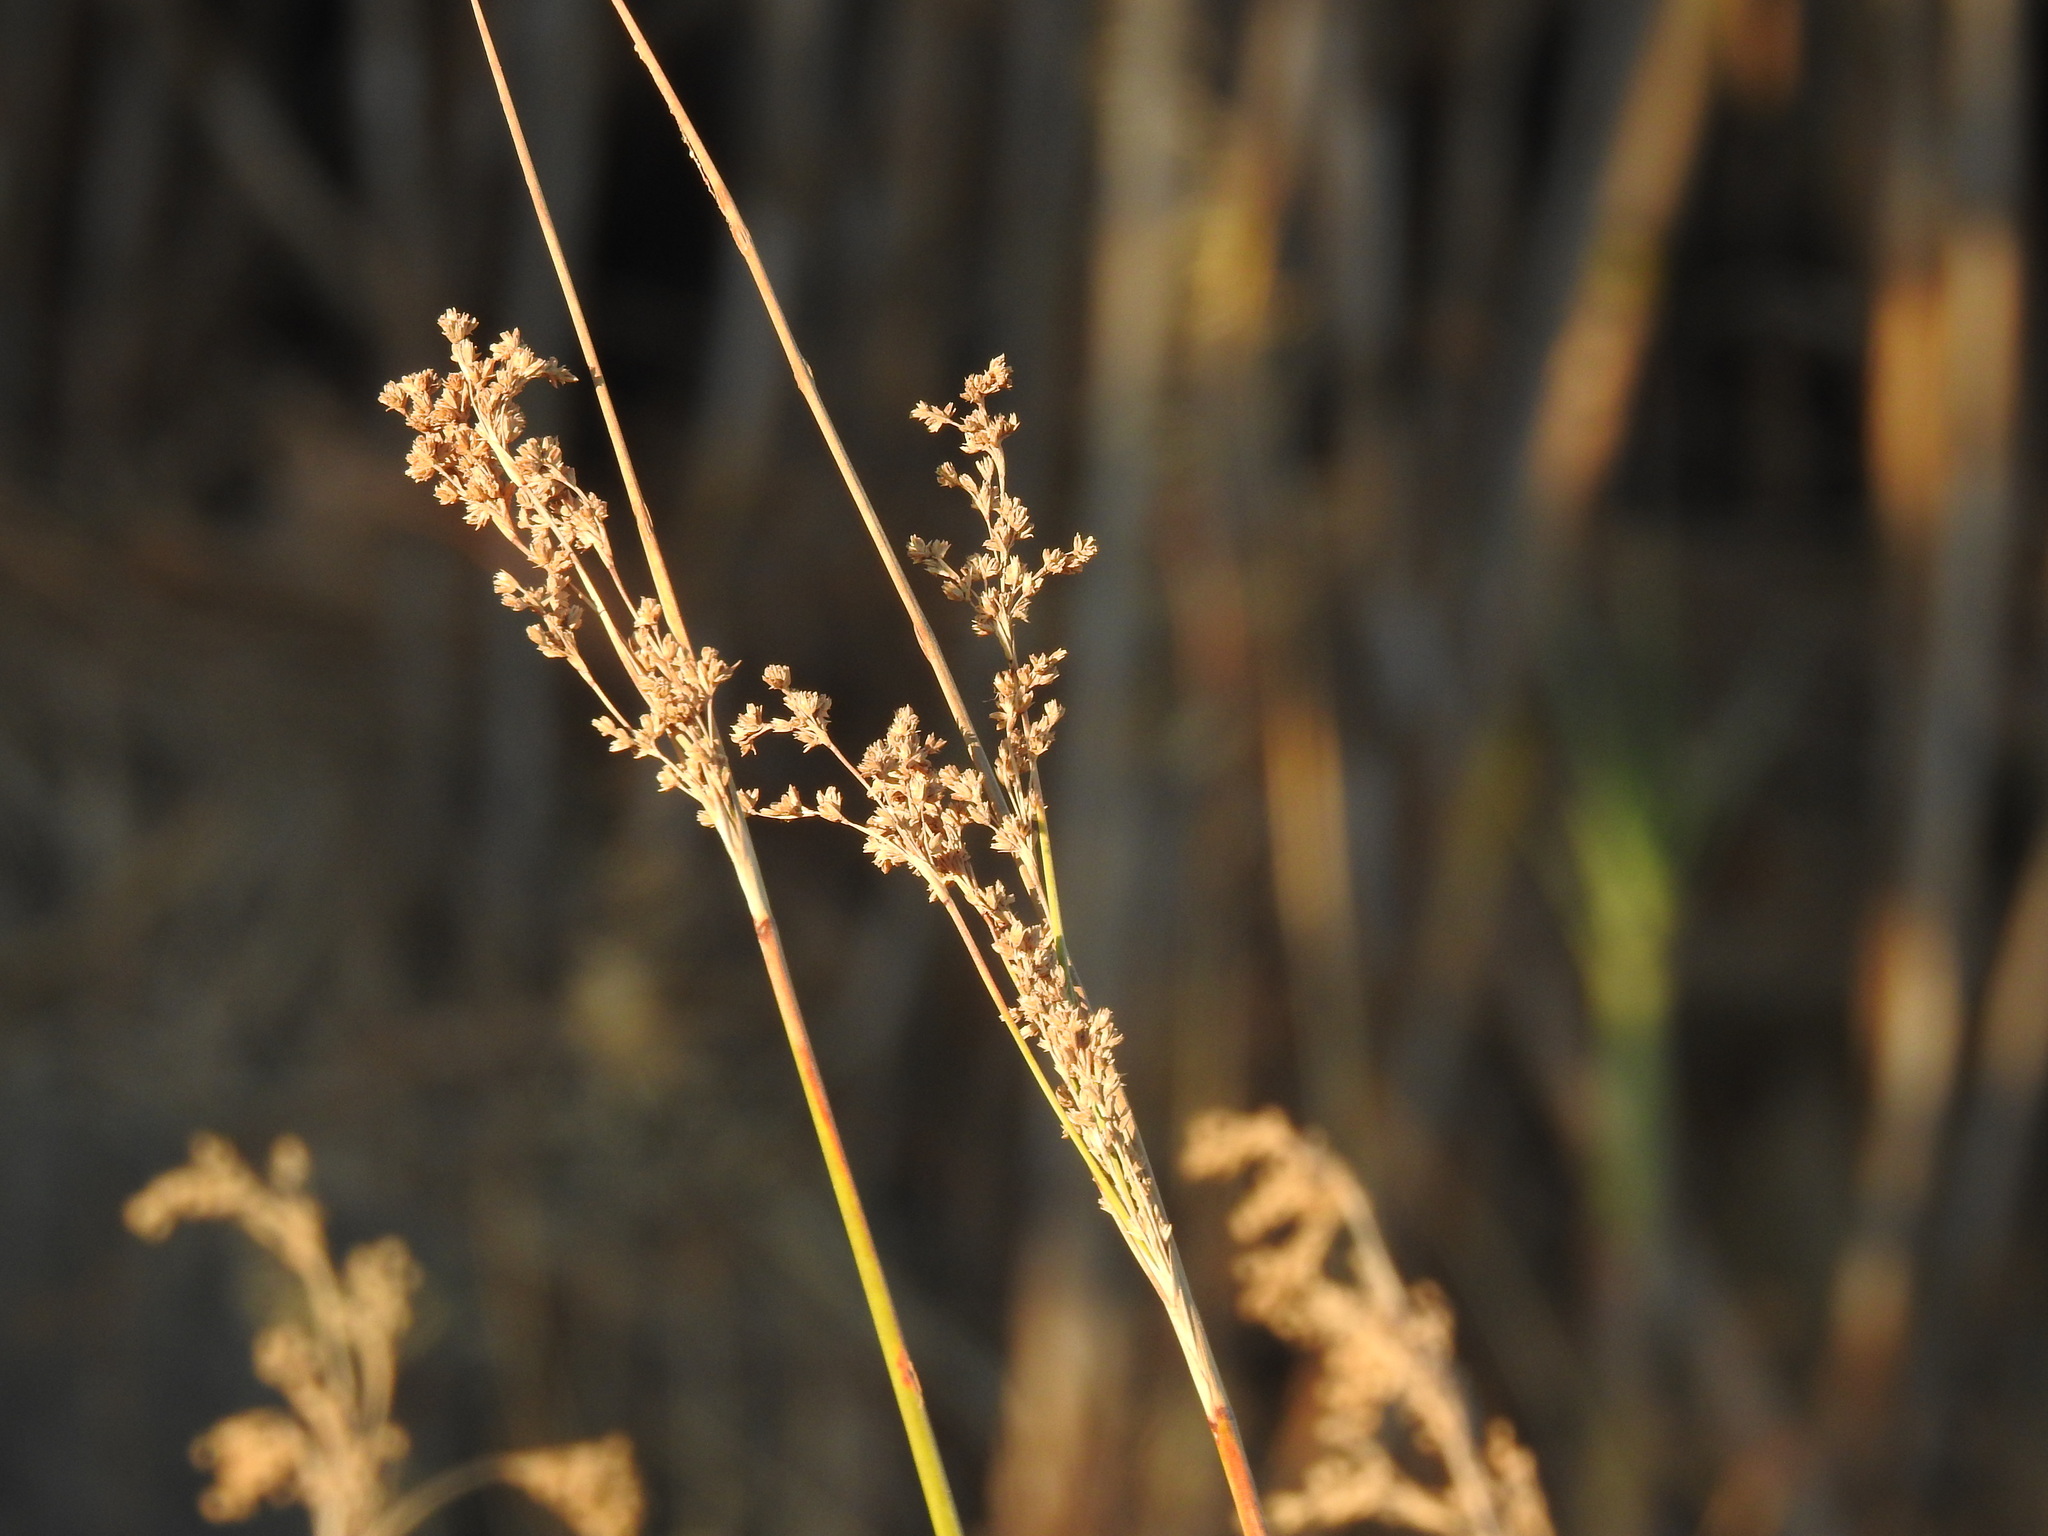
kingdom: Plantae
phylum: Tracheophyta
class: Liliopsida
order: Poales
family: Juncaceae
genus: Juncus
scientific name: Juncus maritimus
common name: Sea rush
